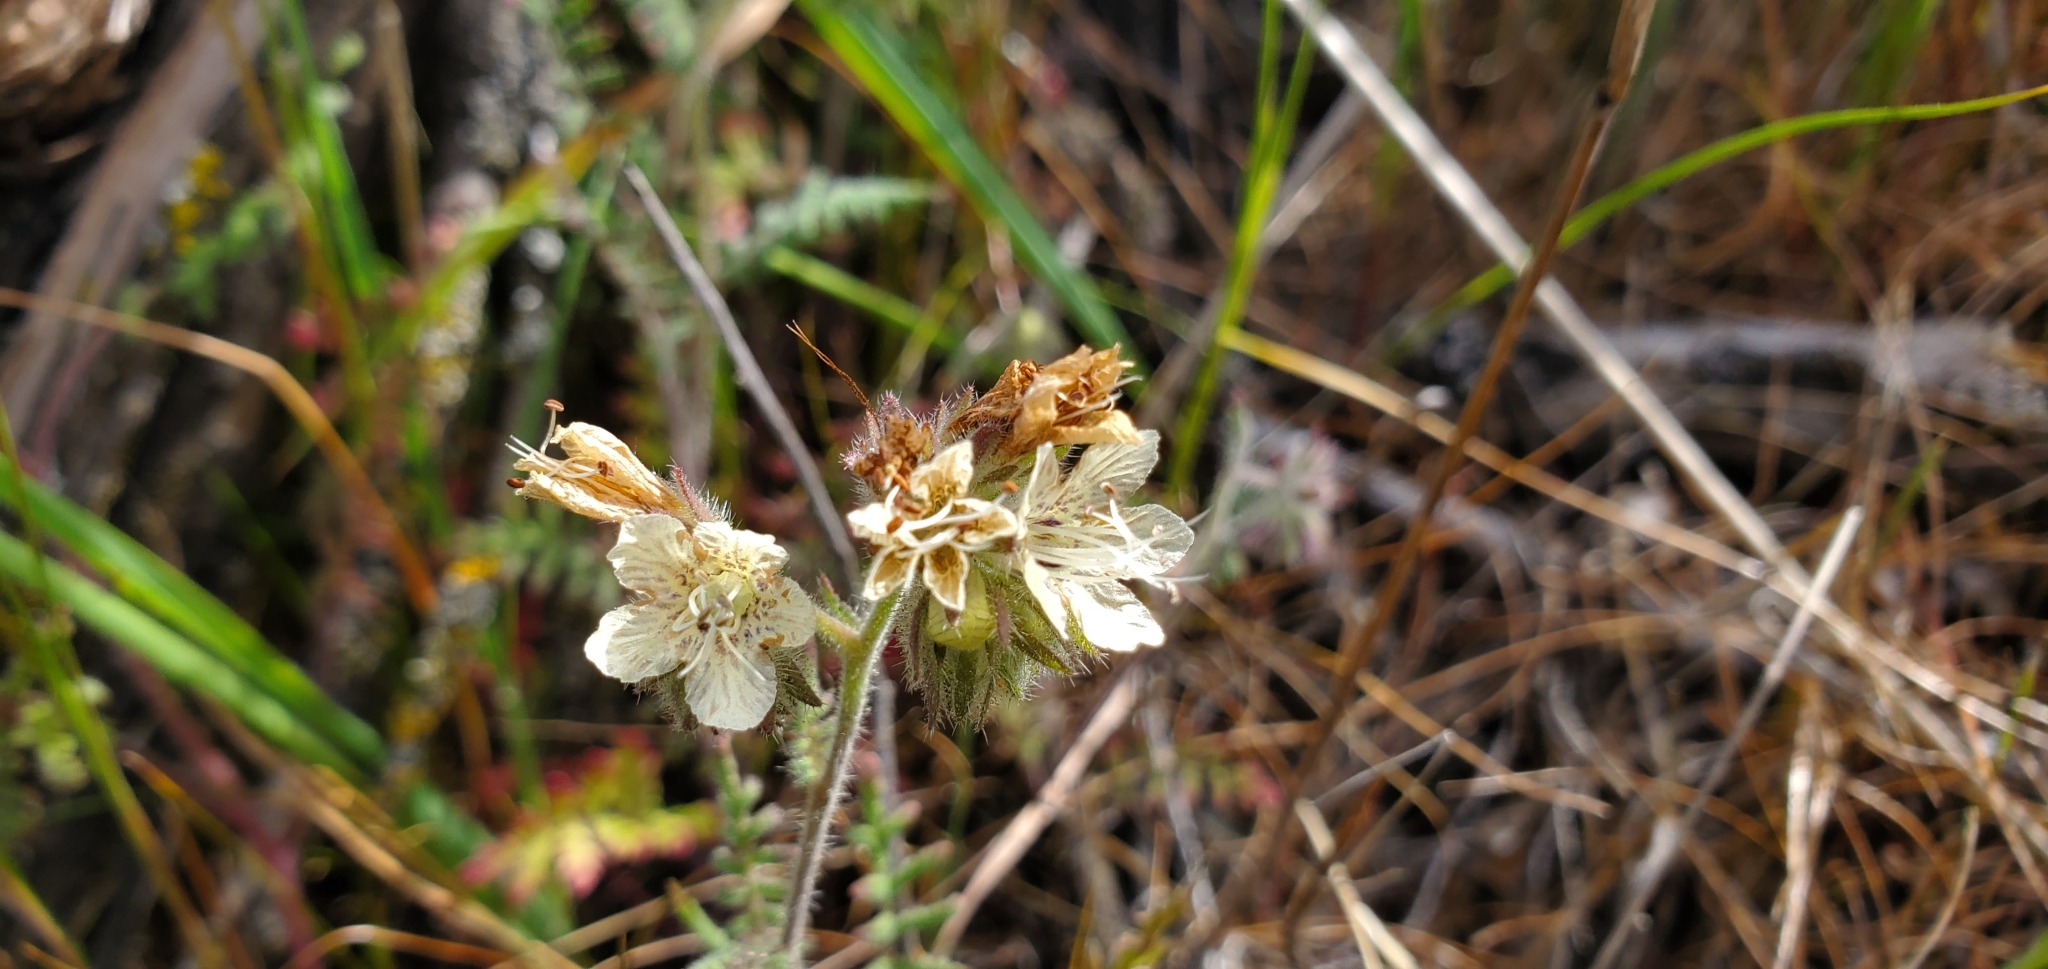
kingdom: Plantae
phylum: Tracheophyta
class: Magnoliopsida
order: Boraginales
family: Hydrophyllaceae
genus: Phacelia
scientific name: Phacelia distans
